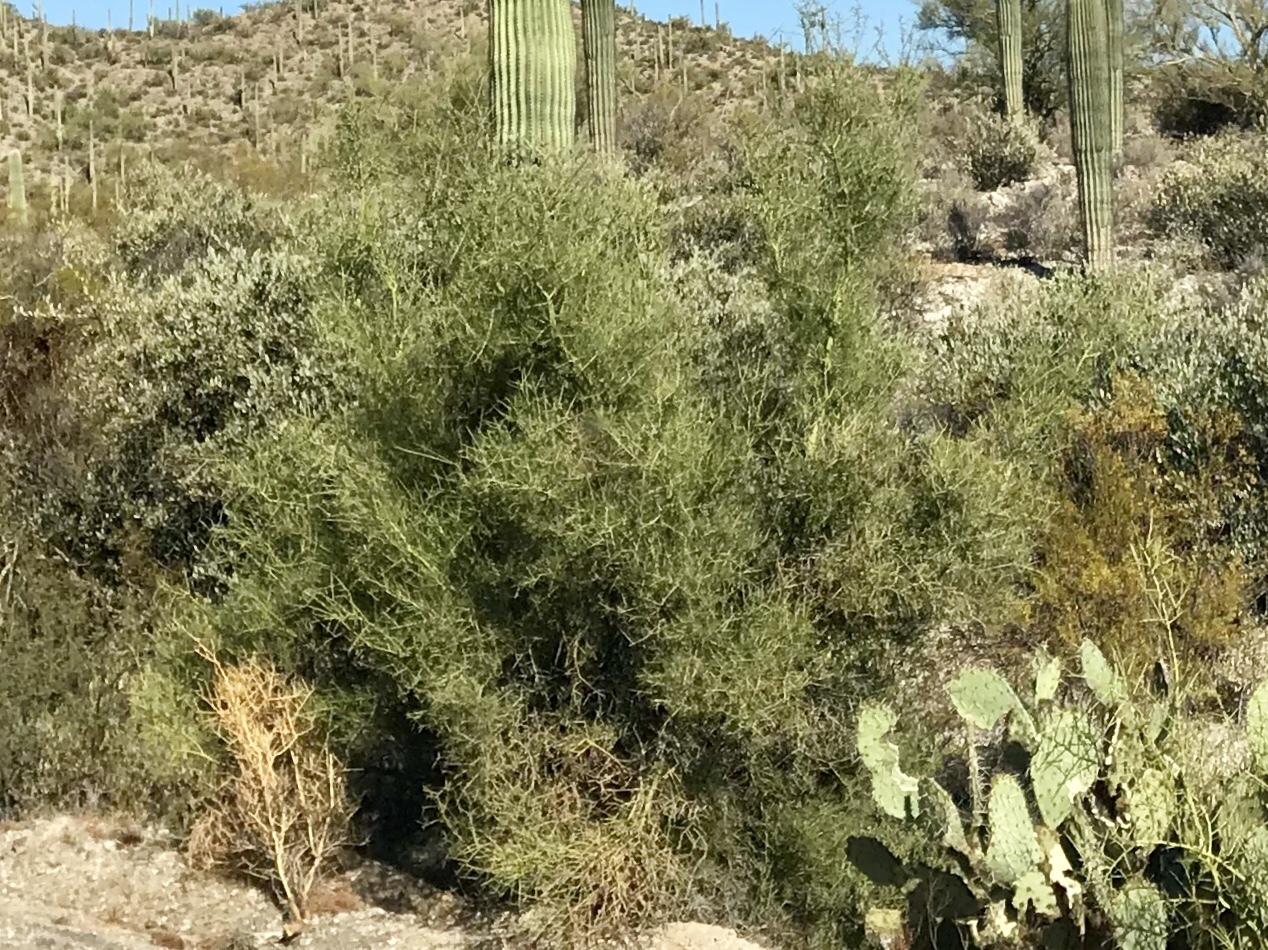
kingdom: Plantae
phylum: Tracheophyta
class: Magnoliopsida
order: Brassicales
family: Koeberliniaceae
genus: Koeberlinia
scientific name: Koeberlinia spinosa
